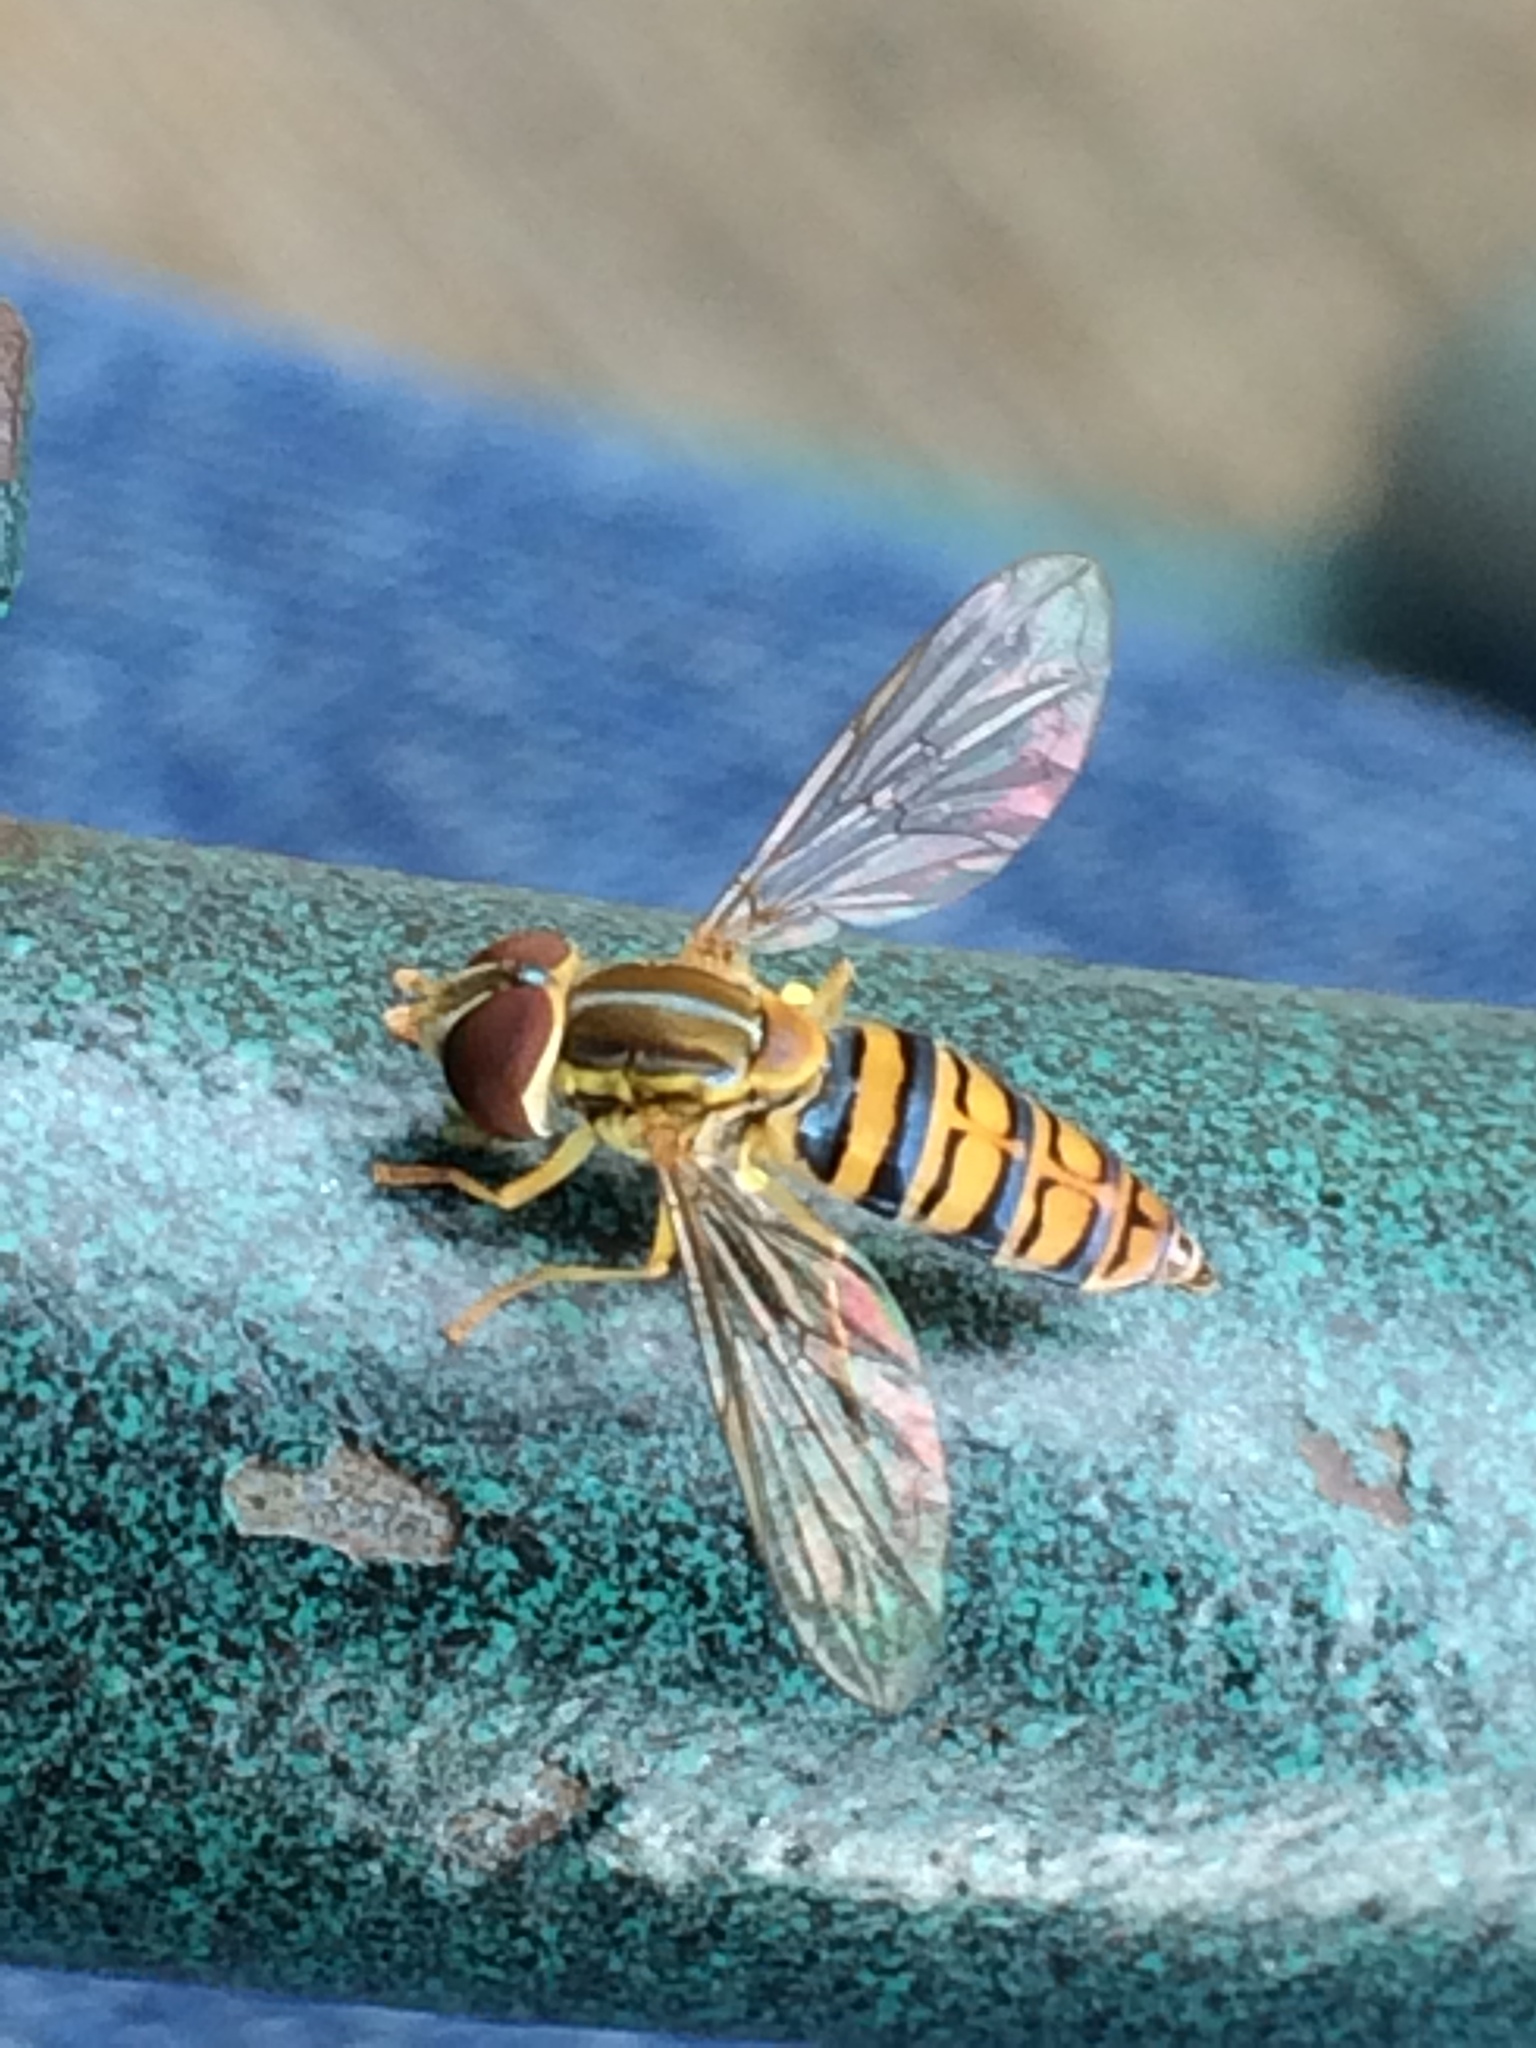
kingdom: Animalia
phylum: Arthropoda
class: Insecta
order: Diptera
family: Syrphidae
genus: Toxomerus
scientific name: Toxomerus politus
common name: Maize calligrapher
